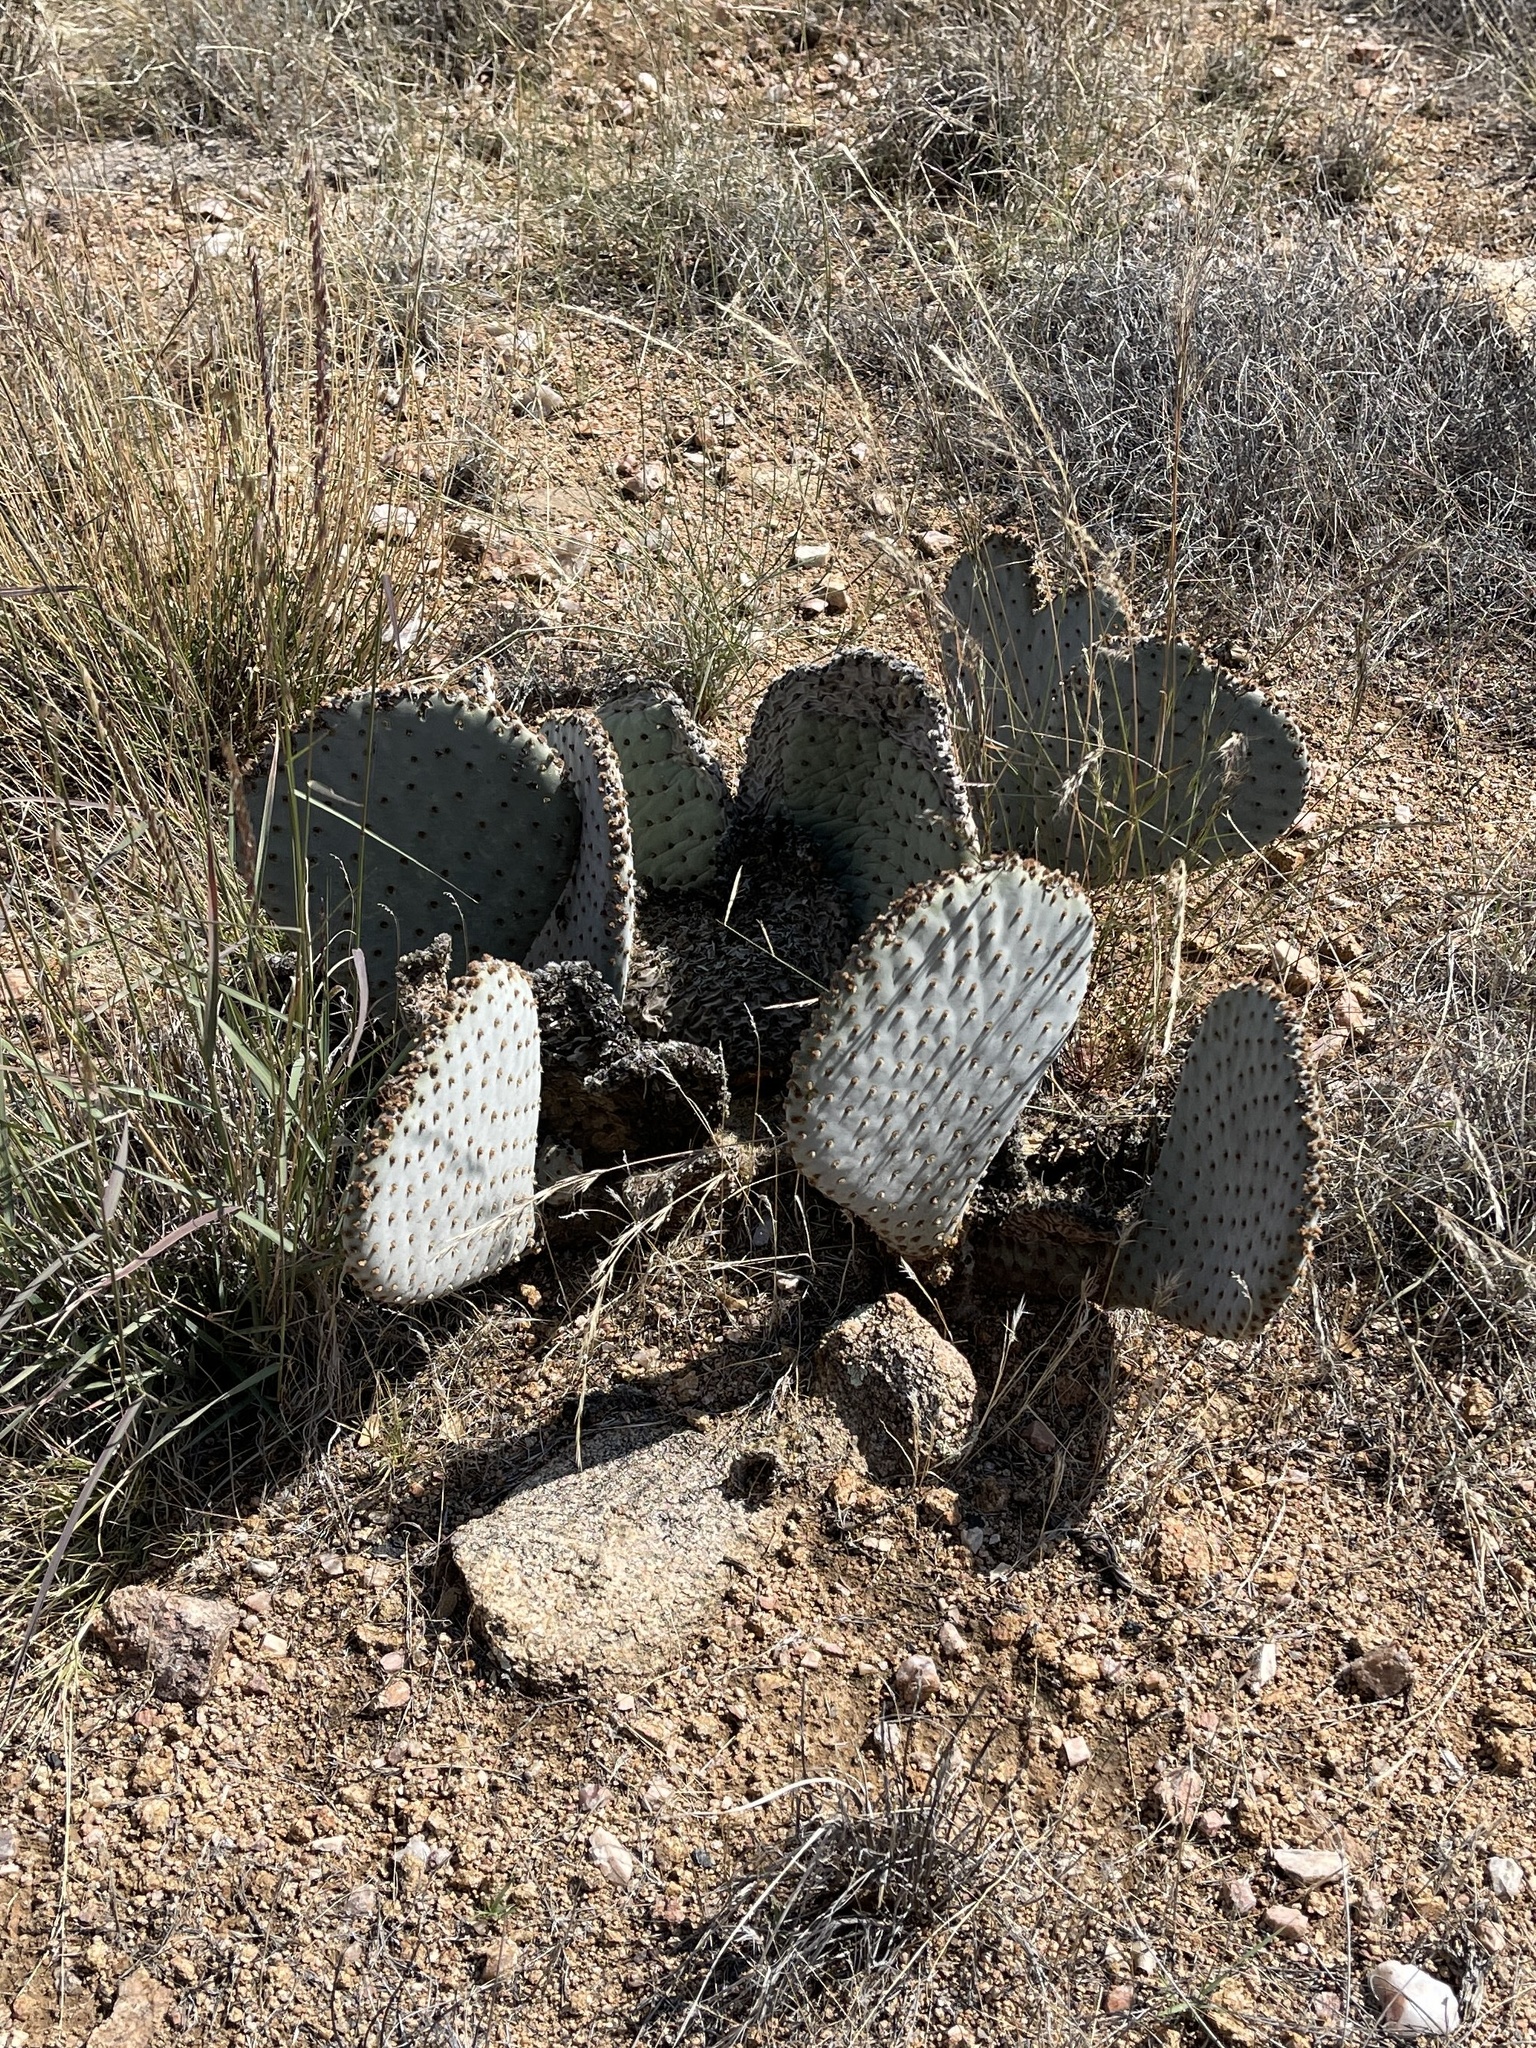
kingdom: Plantae
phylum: Tracheophyta
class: Magnoliopsida
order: Caryophyllales
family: Cactaceae
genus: Opuntia
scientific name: Opuntia basilaris
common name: Beavertail prickly-pear
